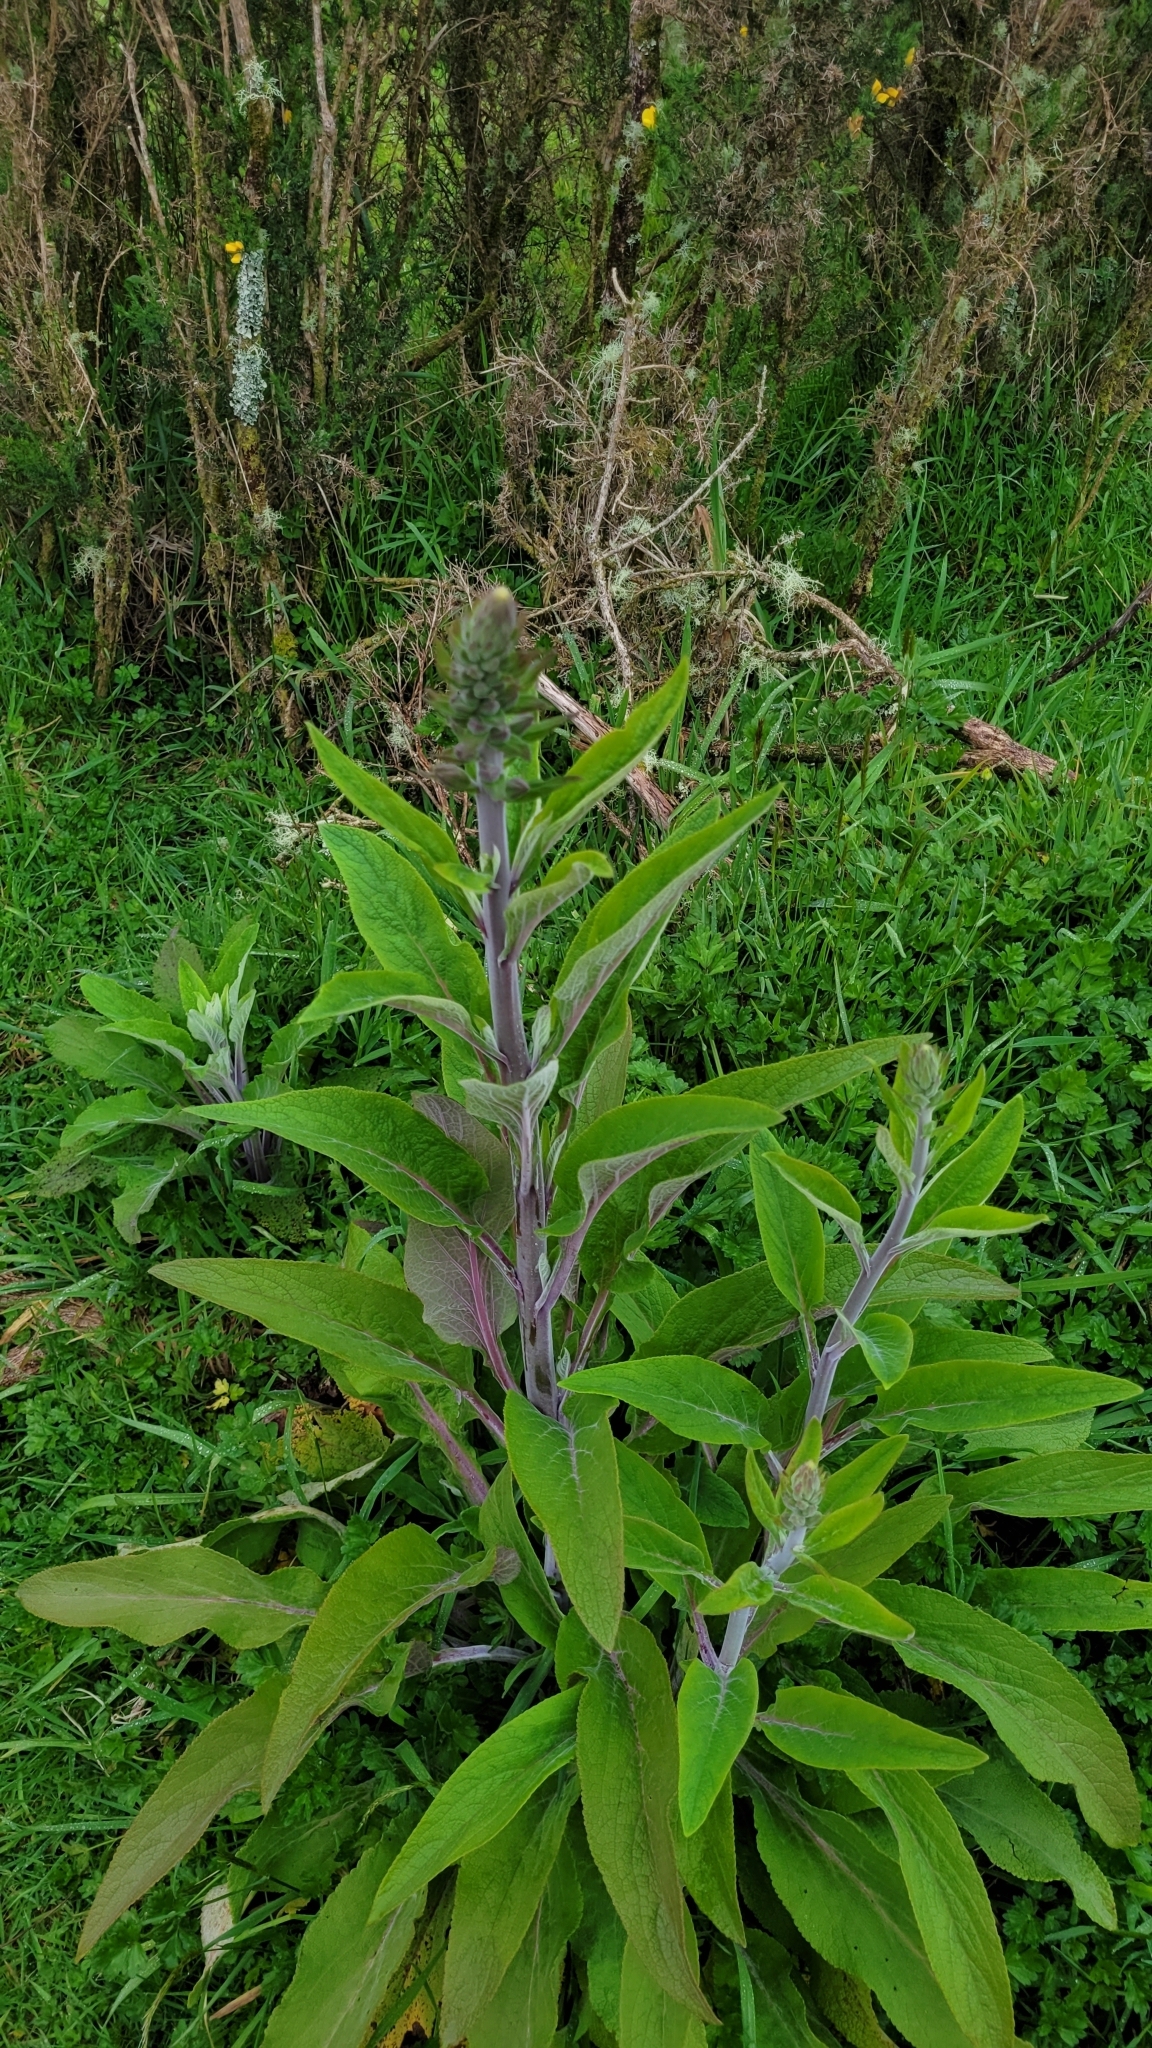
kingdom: Plantae
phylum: Tracheophyta
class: Magnoliopsida
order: Lamiales
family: Plantaginaceae
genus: Digitalis
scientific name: Digitalis purpurea
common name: Foxglove
